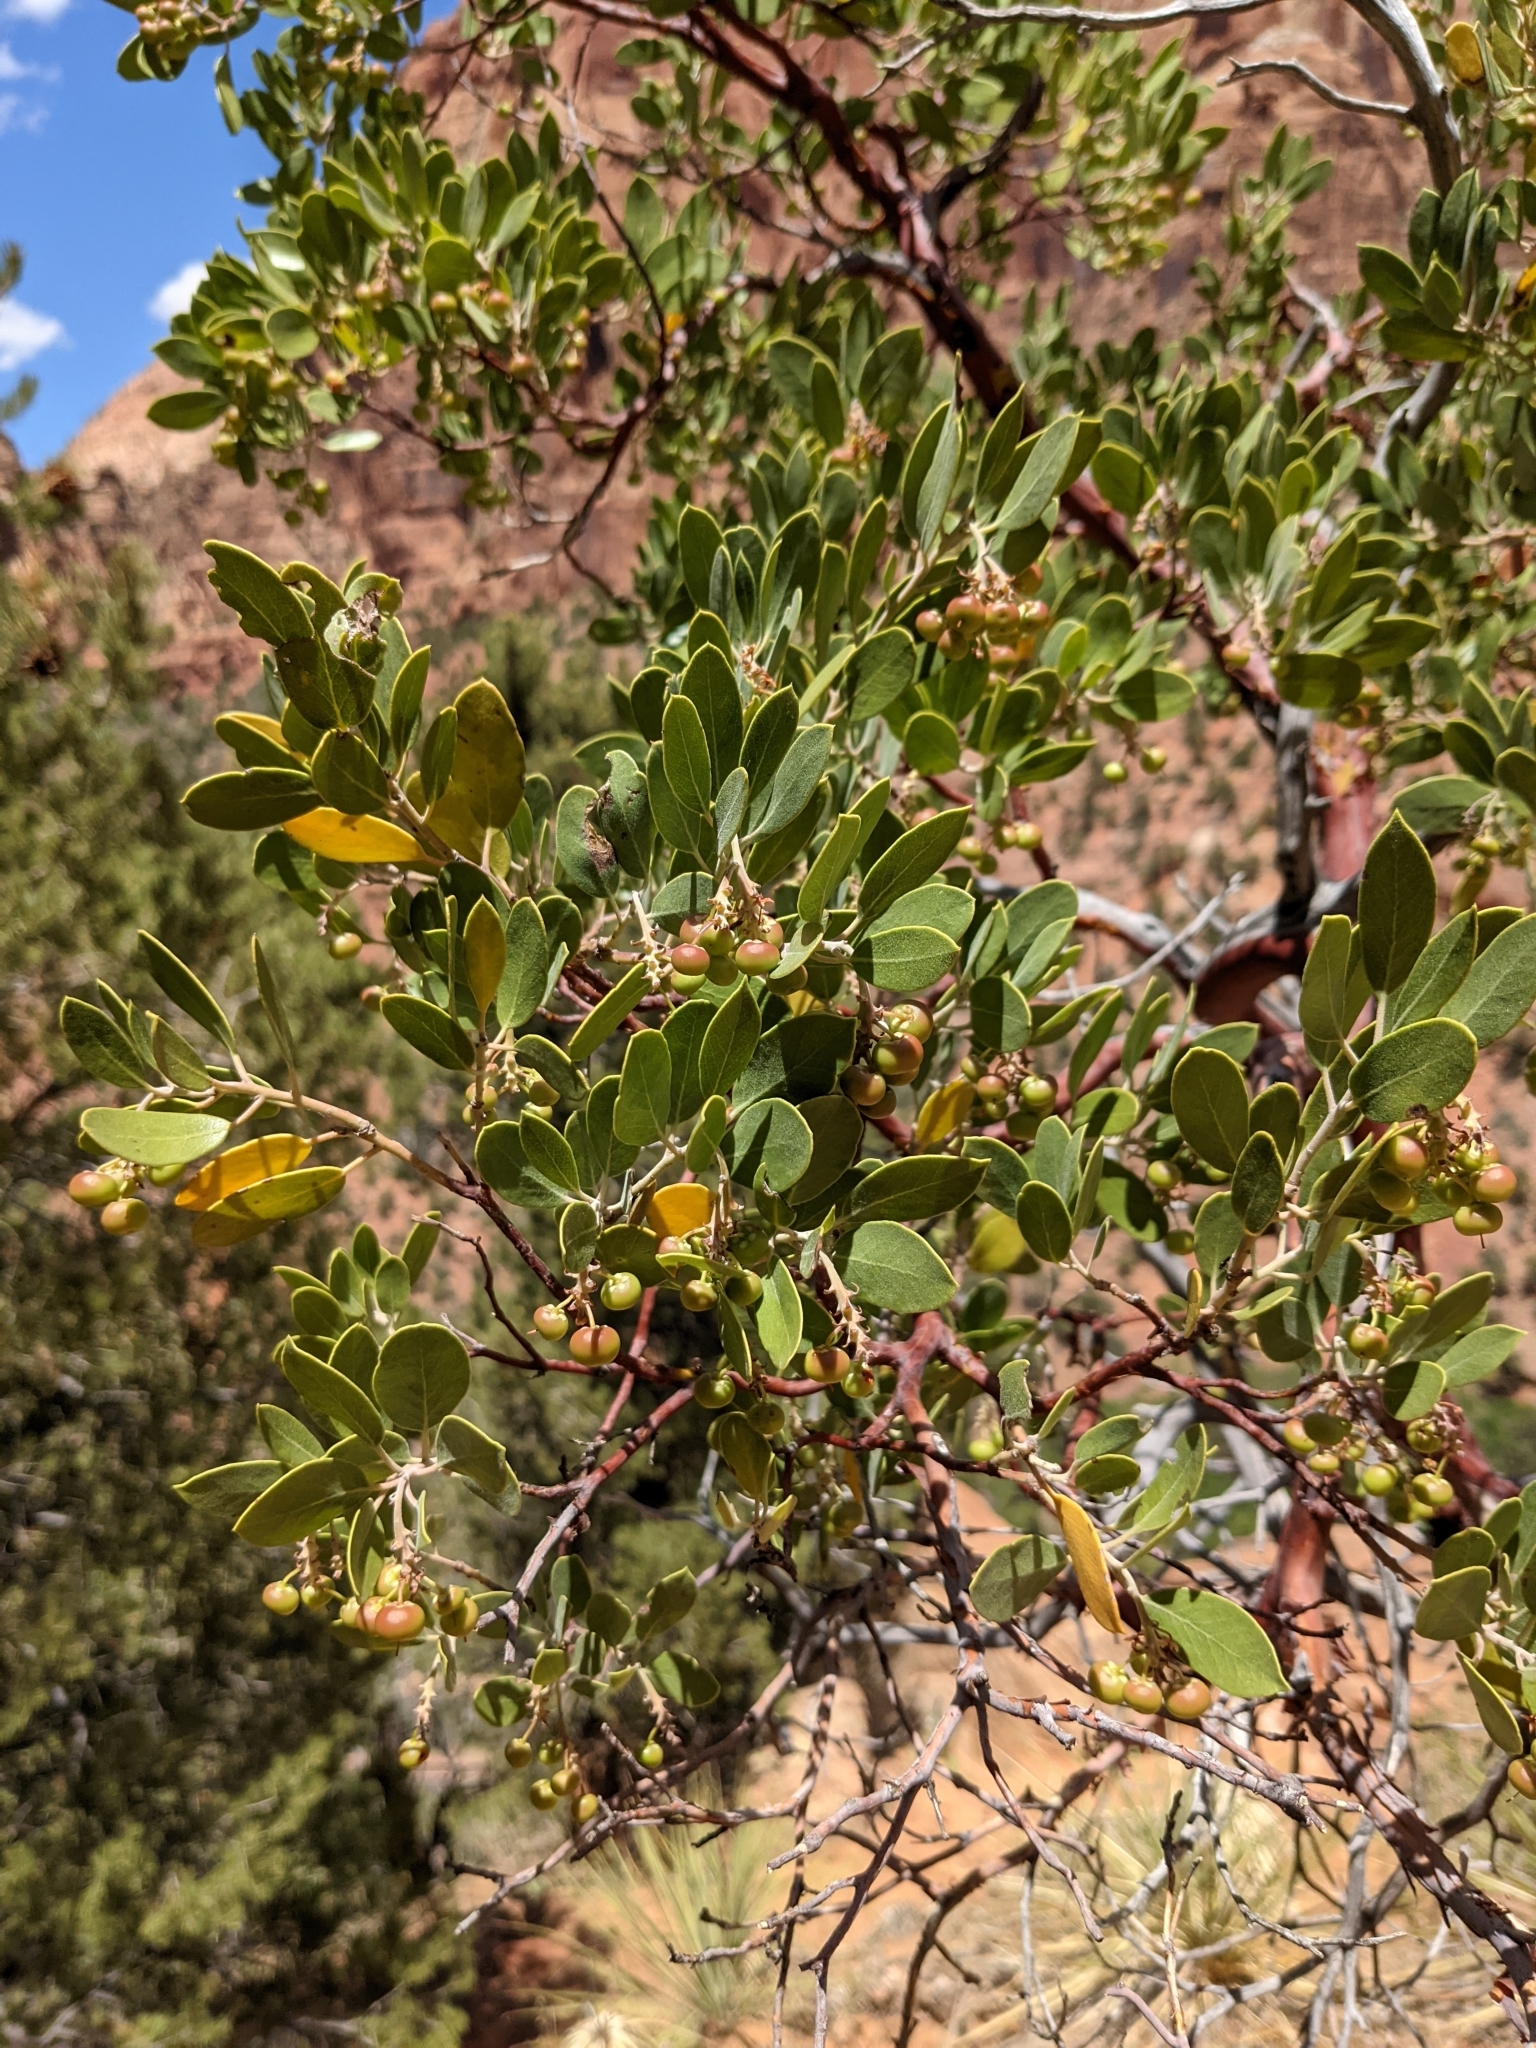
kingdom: Plantae
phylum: Tracheophyta
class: Magnoliopsida
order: Ericales
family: Ericaceae
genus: Arctostaphylos
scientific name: Arctostaphylos pungens
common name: Mexican manzanita
